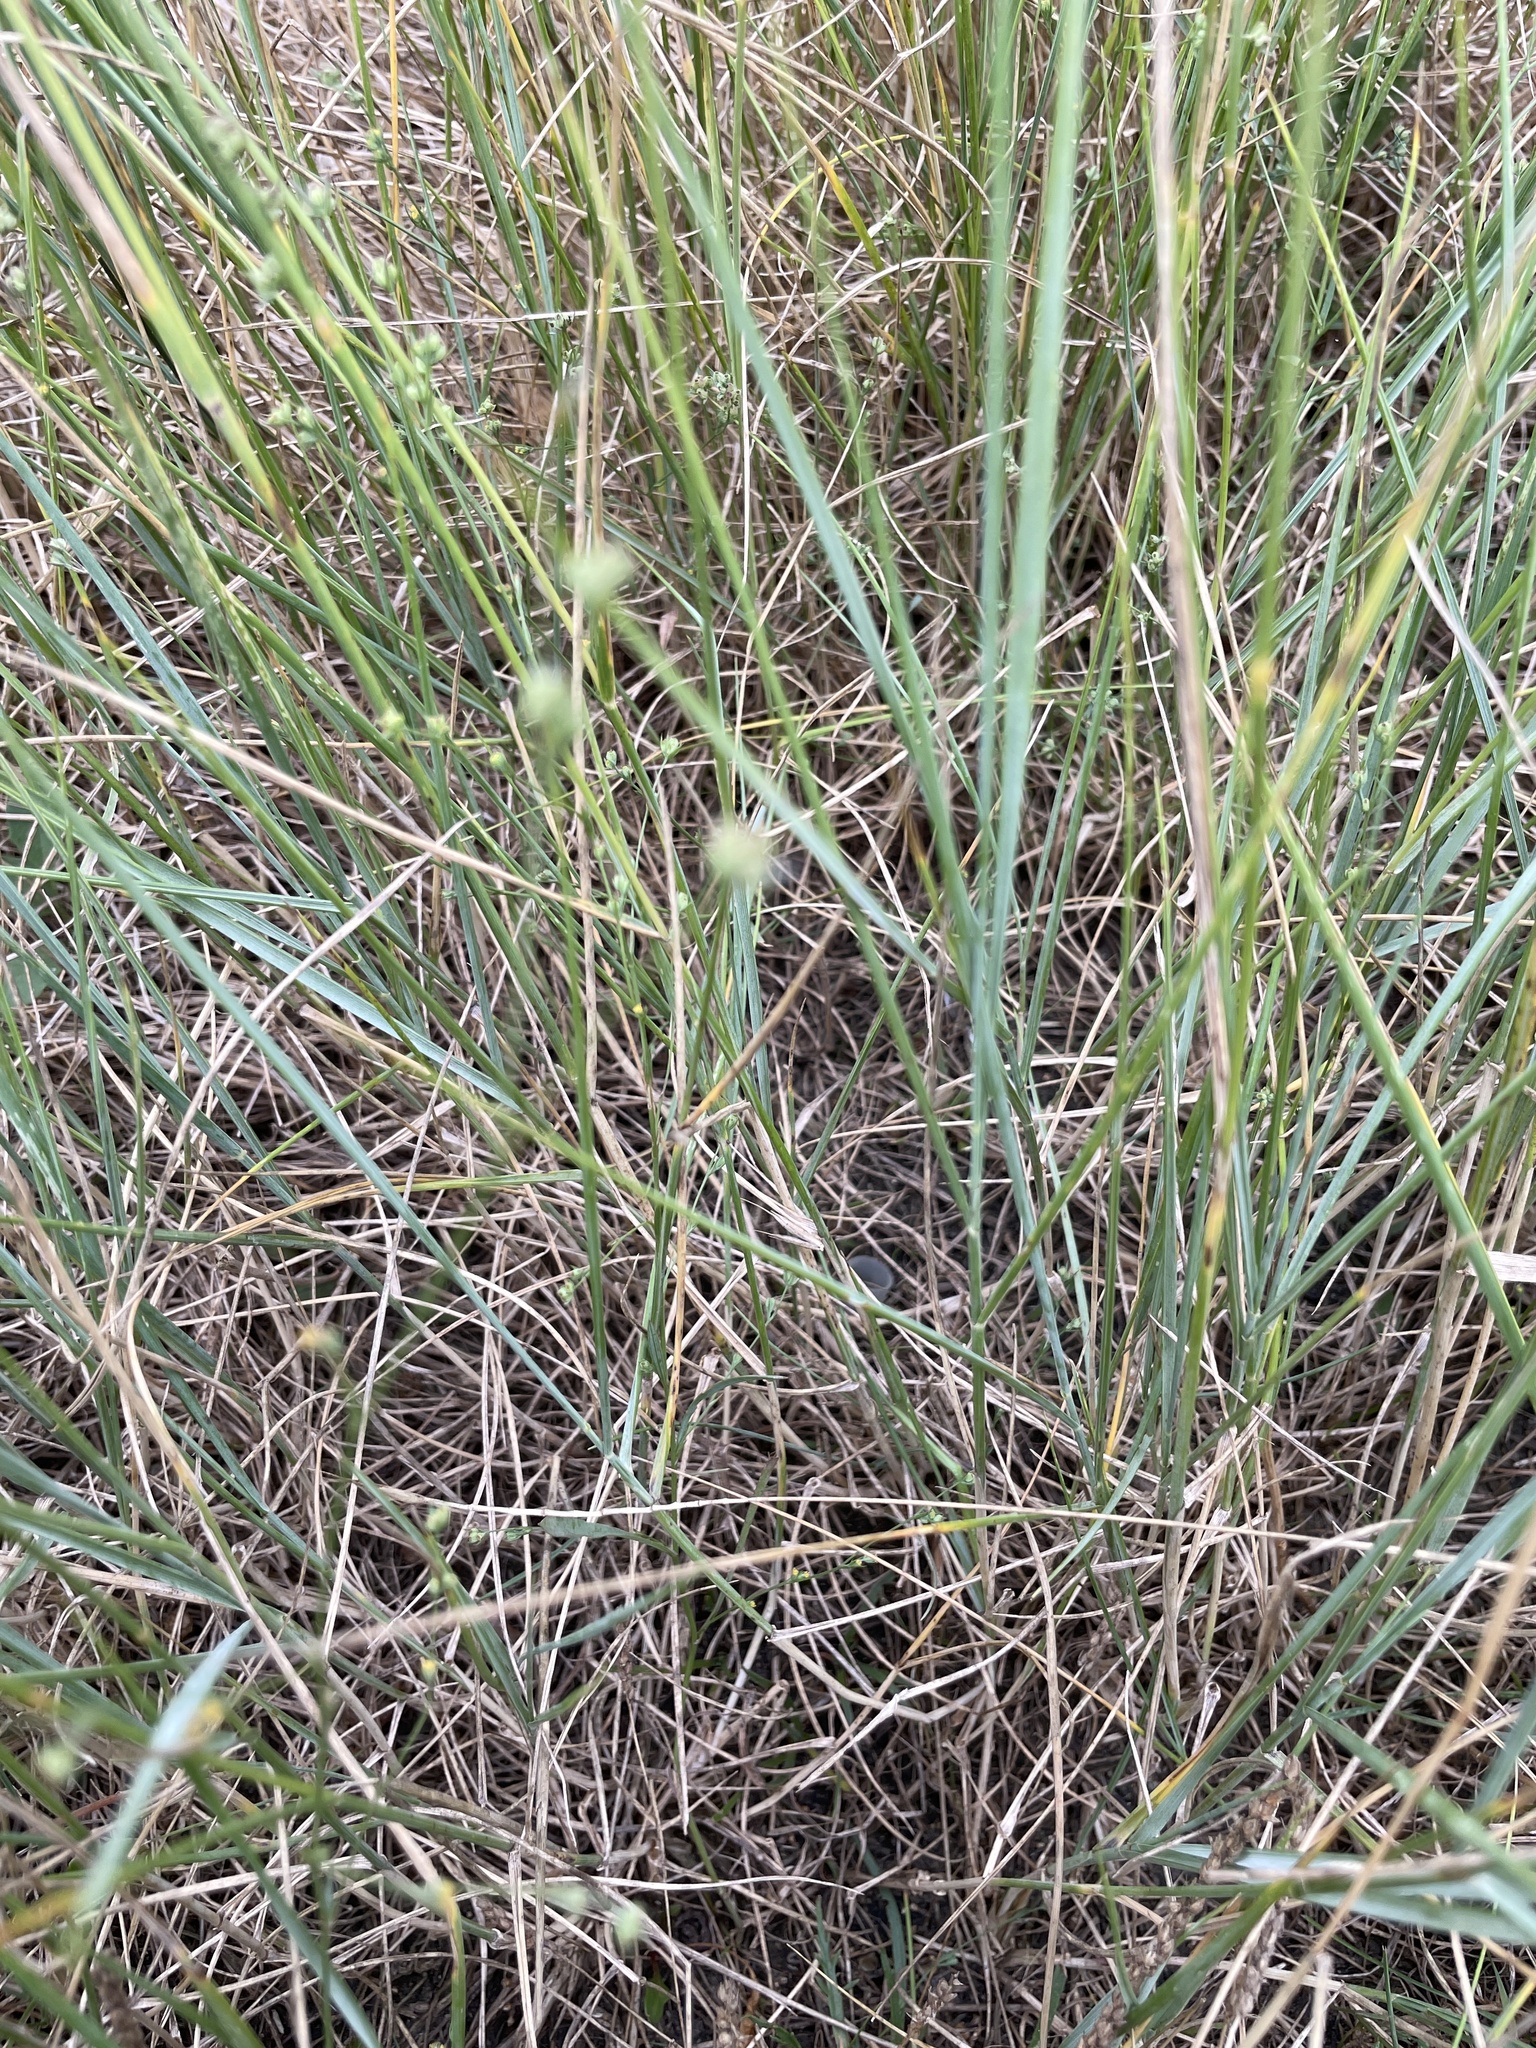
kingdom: Plantae
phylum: Tracheophyta
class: Magnoliopsida
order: Apiales
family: Apiaceae
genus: Bupleurum
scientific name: Bupleurum tenuissimum
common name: Slender hare's-ear
